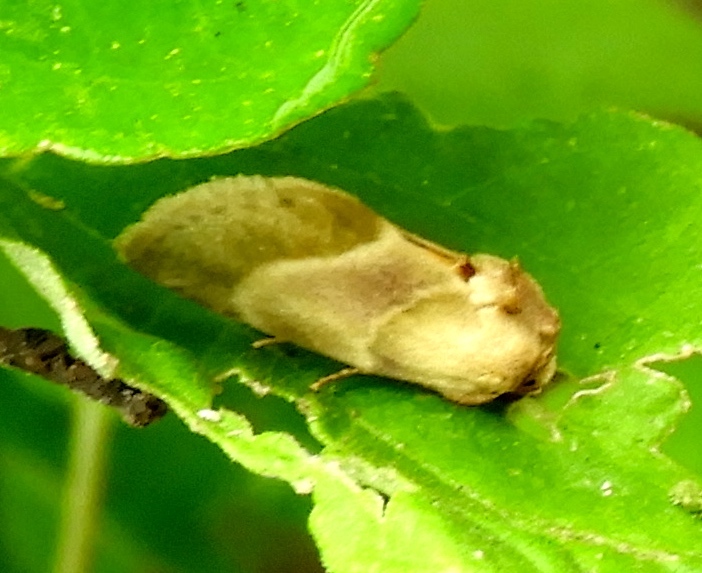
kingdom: Animalia
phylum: Arthropoda
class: Insecta
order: Lepidoptera
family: Noctuidae
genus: Chalcoecia
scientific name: Chalcoecia
